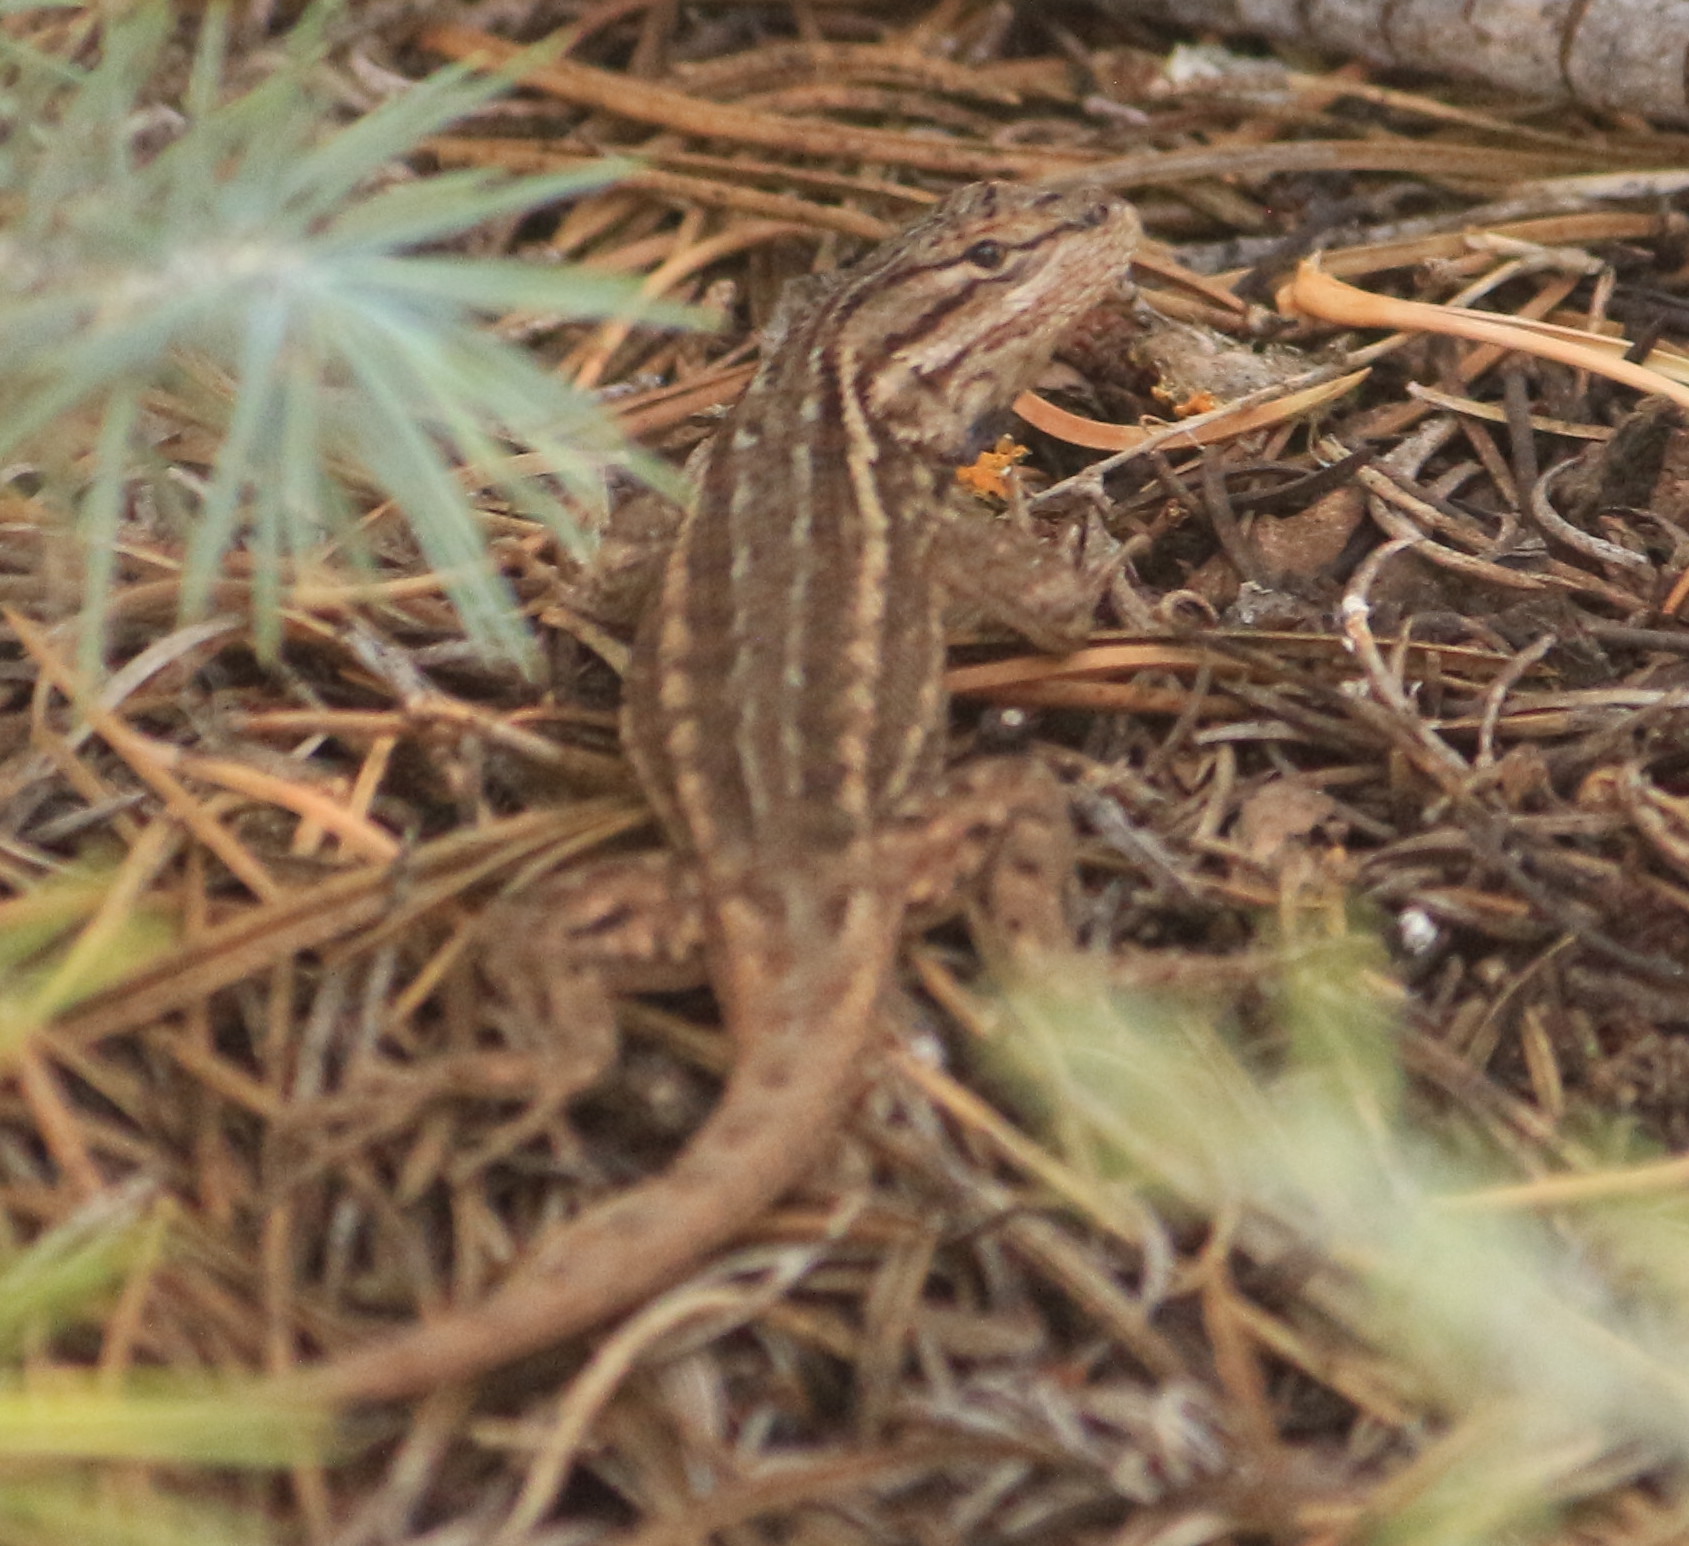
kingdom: Animalia
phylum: Chordata
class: Squamata
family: Phrynosomatidae
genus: Sceloporus
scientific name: Sceloporus tristichus
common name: Plateau fence lizard
